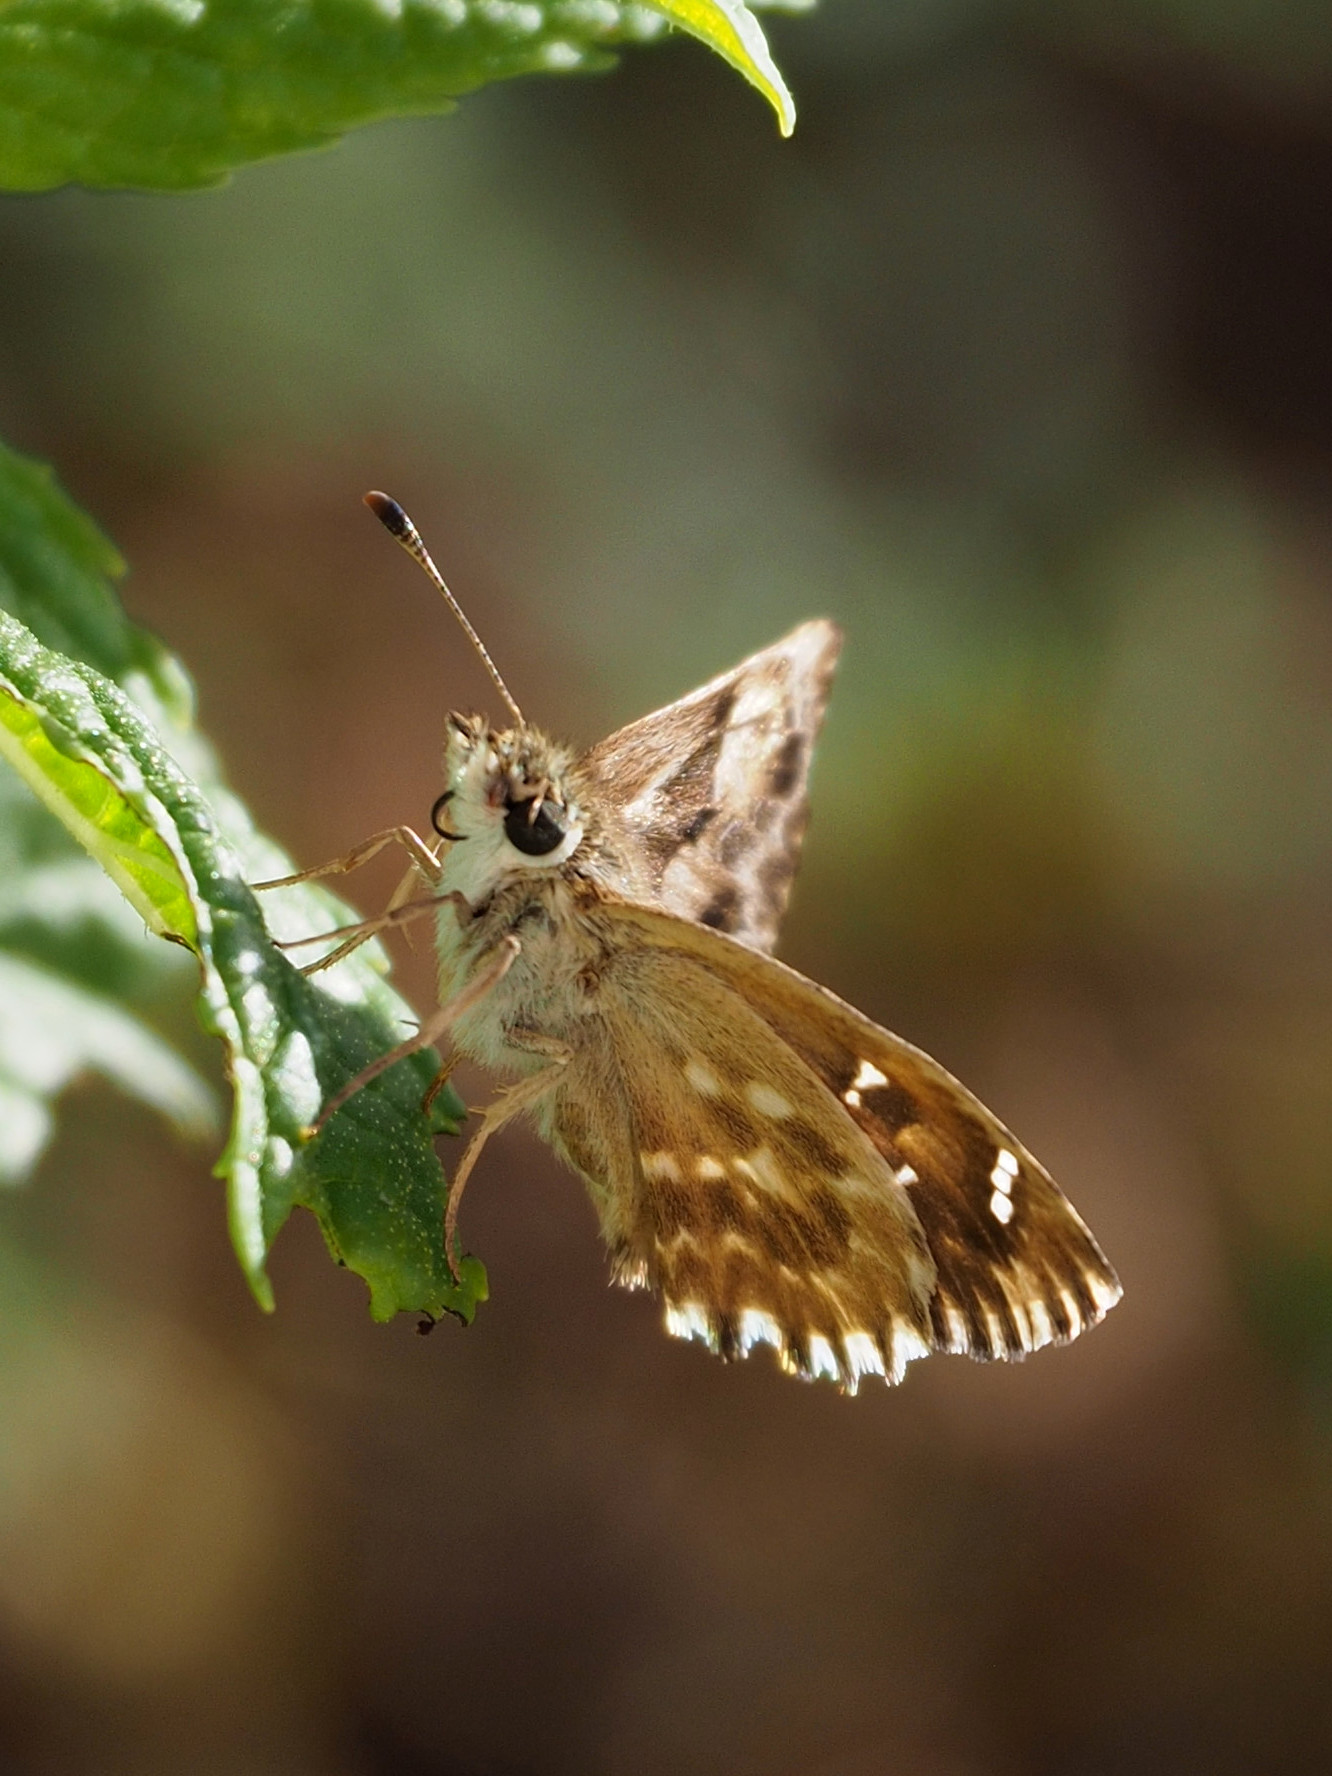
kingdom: Animalia
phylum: Arthropoda
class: Insecta
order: Lepidoptera
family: Hesperiidae
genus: Carcharodus
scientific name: Carcharodus alceae
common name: Mallow skipper
